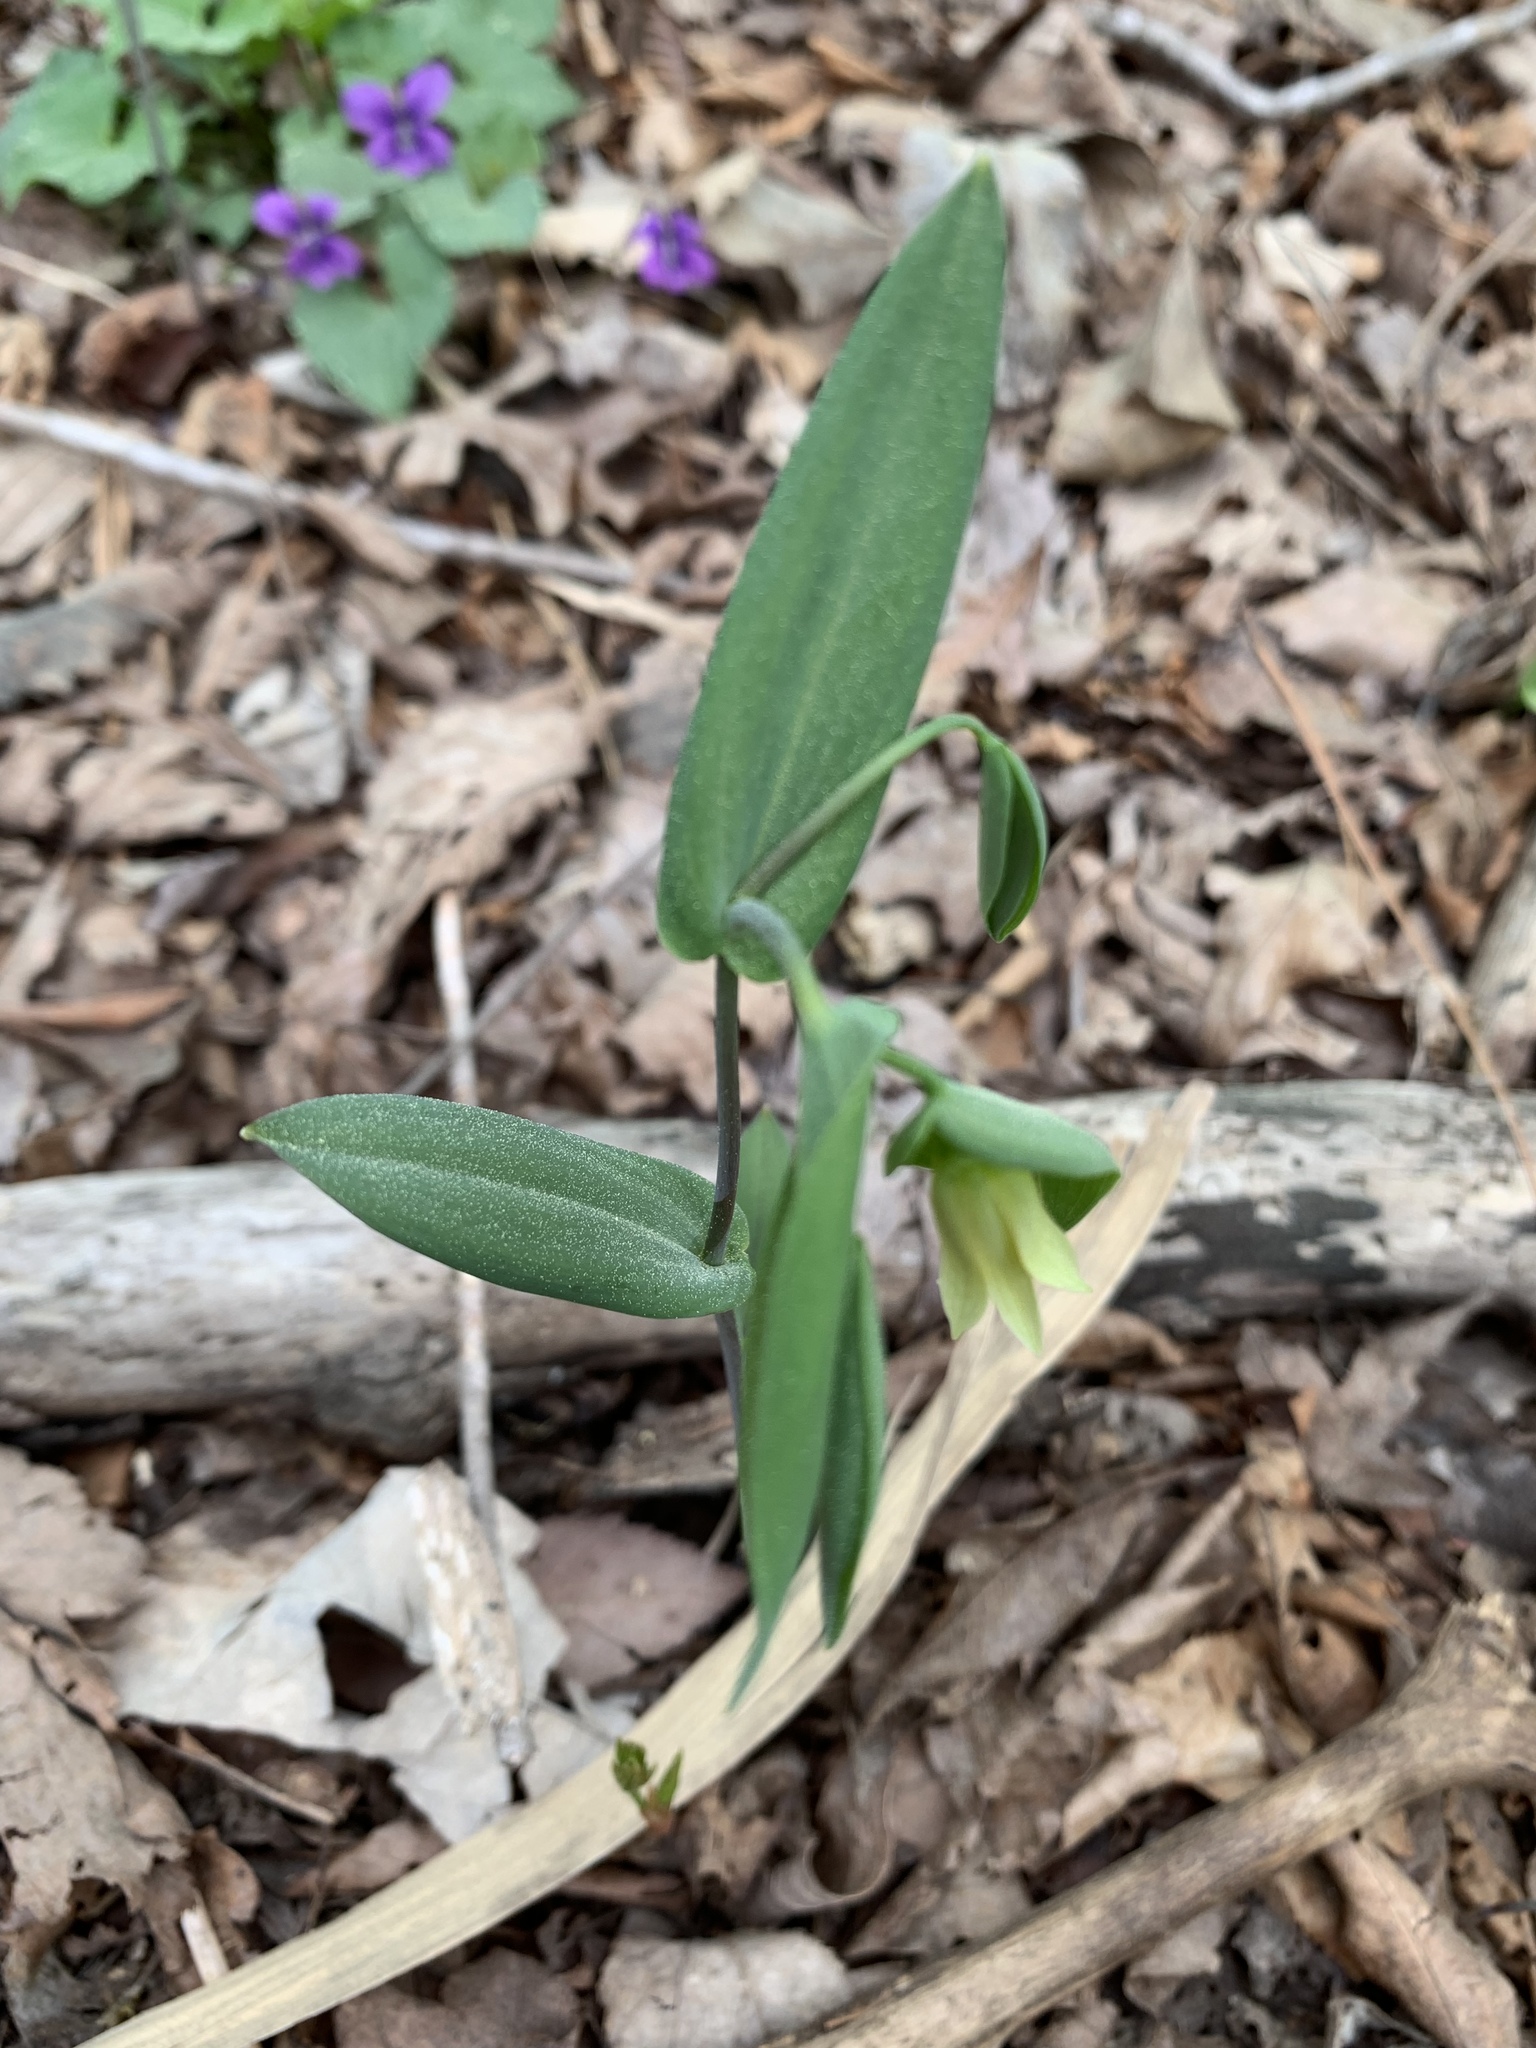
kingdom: Plantae
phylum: Tracheophyta
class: Liliopsida
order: Liliales
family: Colchicaceae
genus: Uvularia
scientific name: Uvularia perfoliata
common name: Perfoliate bellwort
